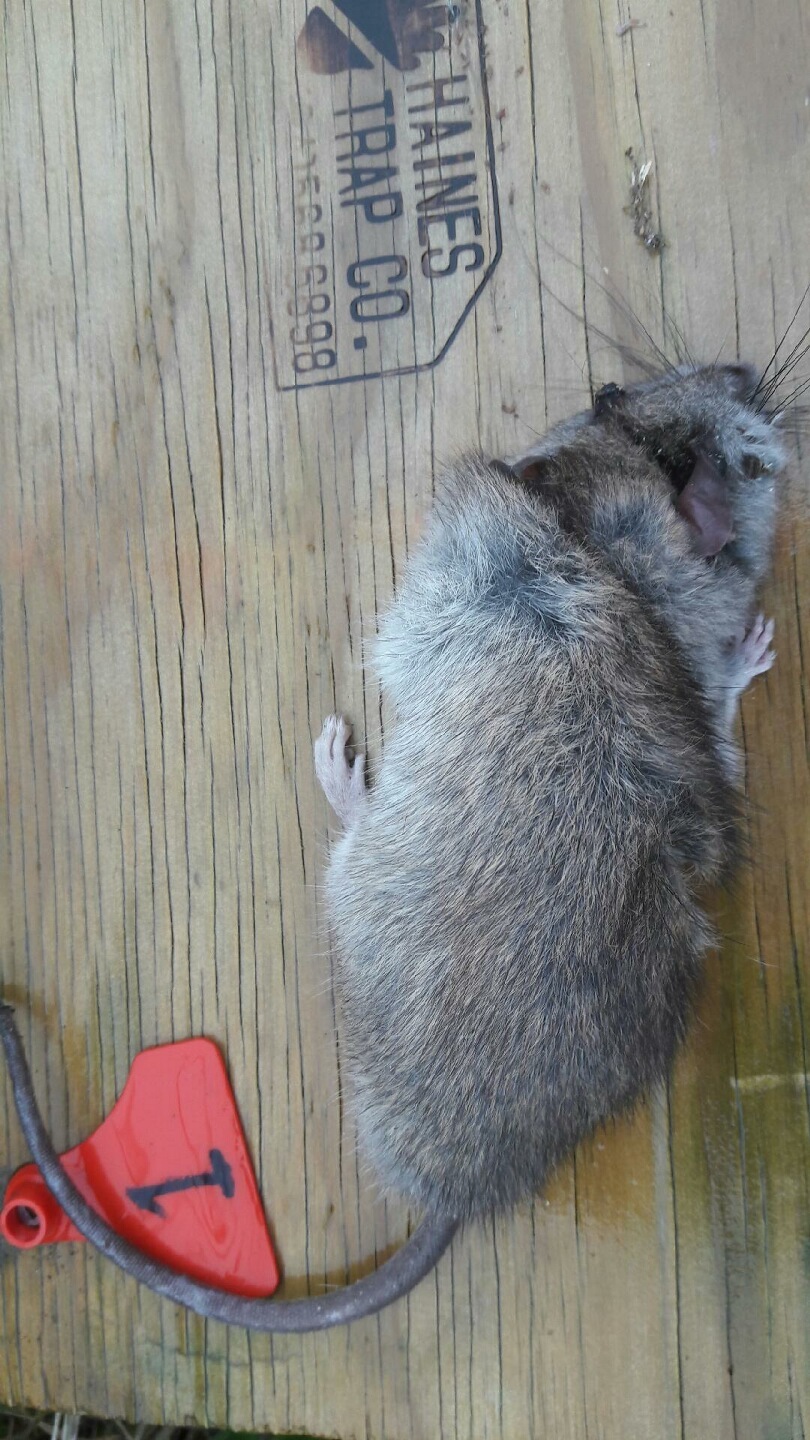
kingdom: Animalia
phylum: Chordata
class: Mammalia
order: Rodentia
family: Muridae
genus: Rattus
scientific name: Rattus norvegicus
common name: Brown rat
